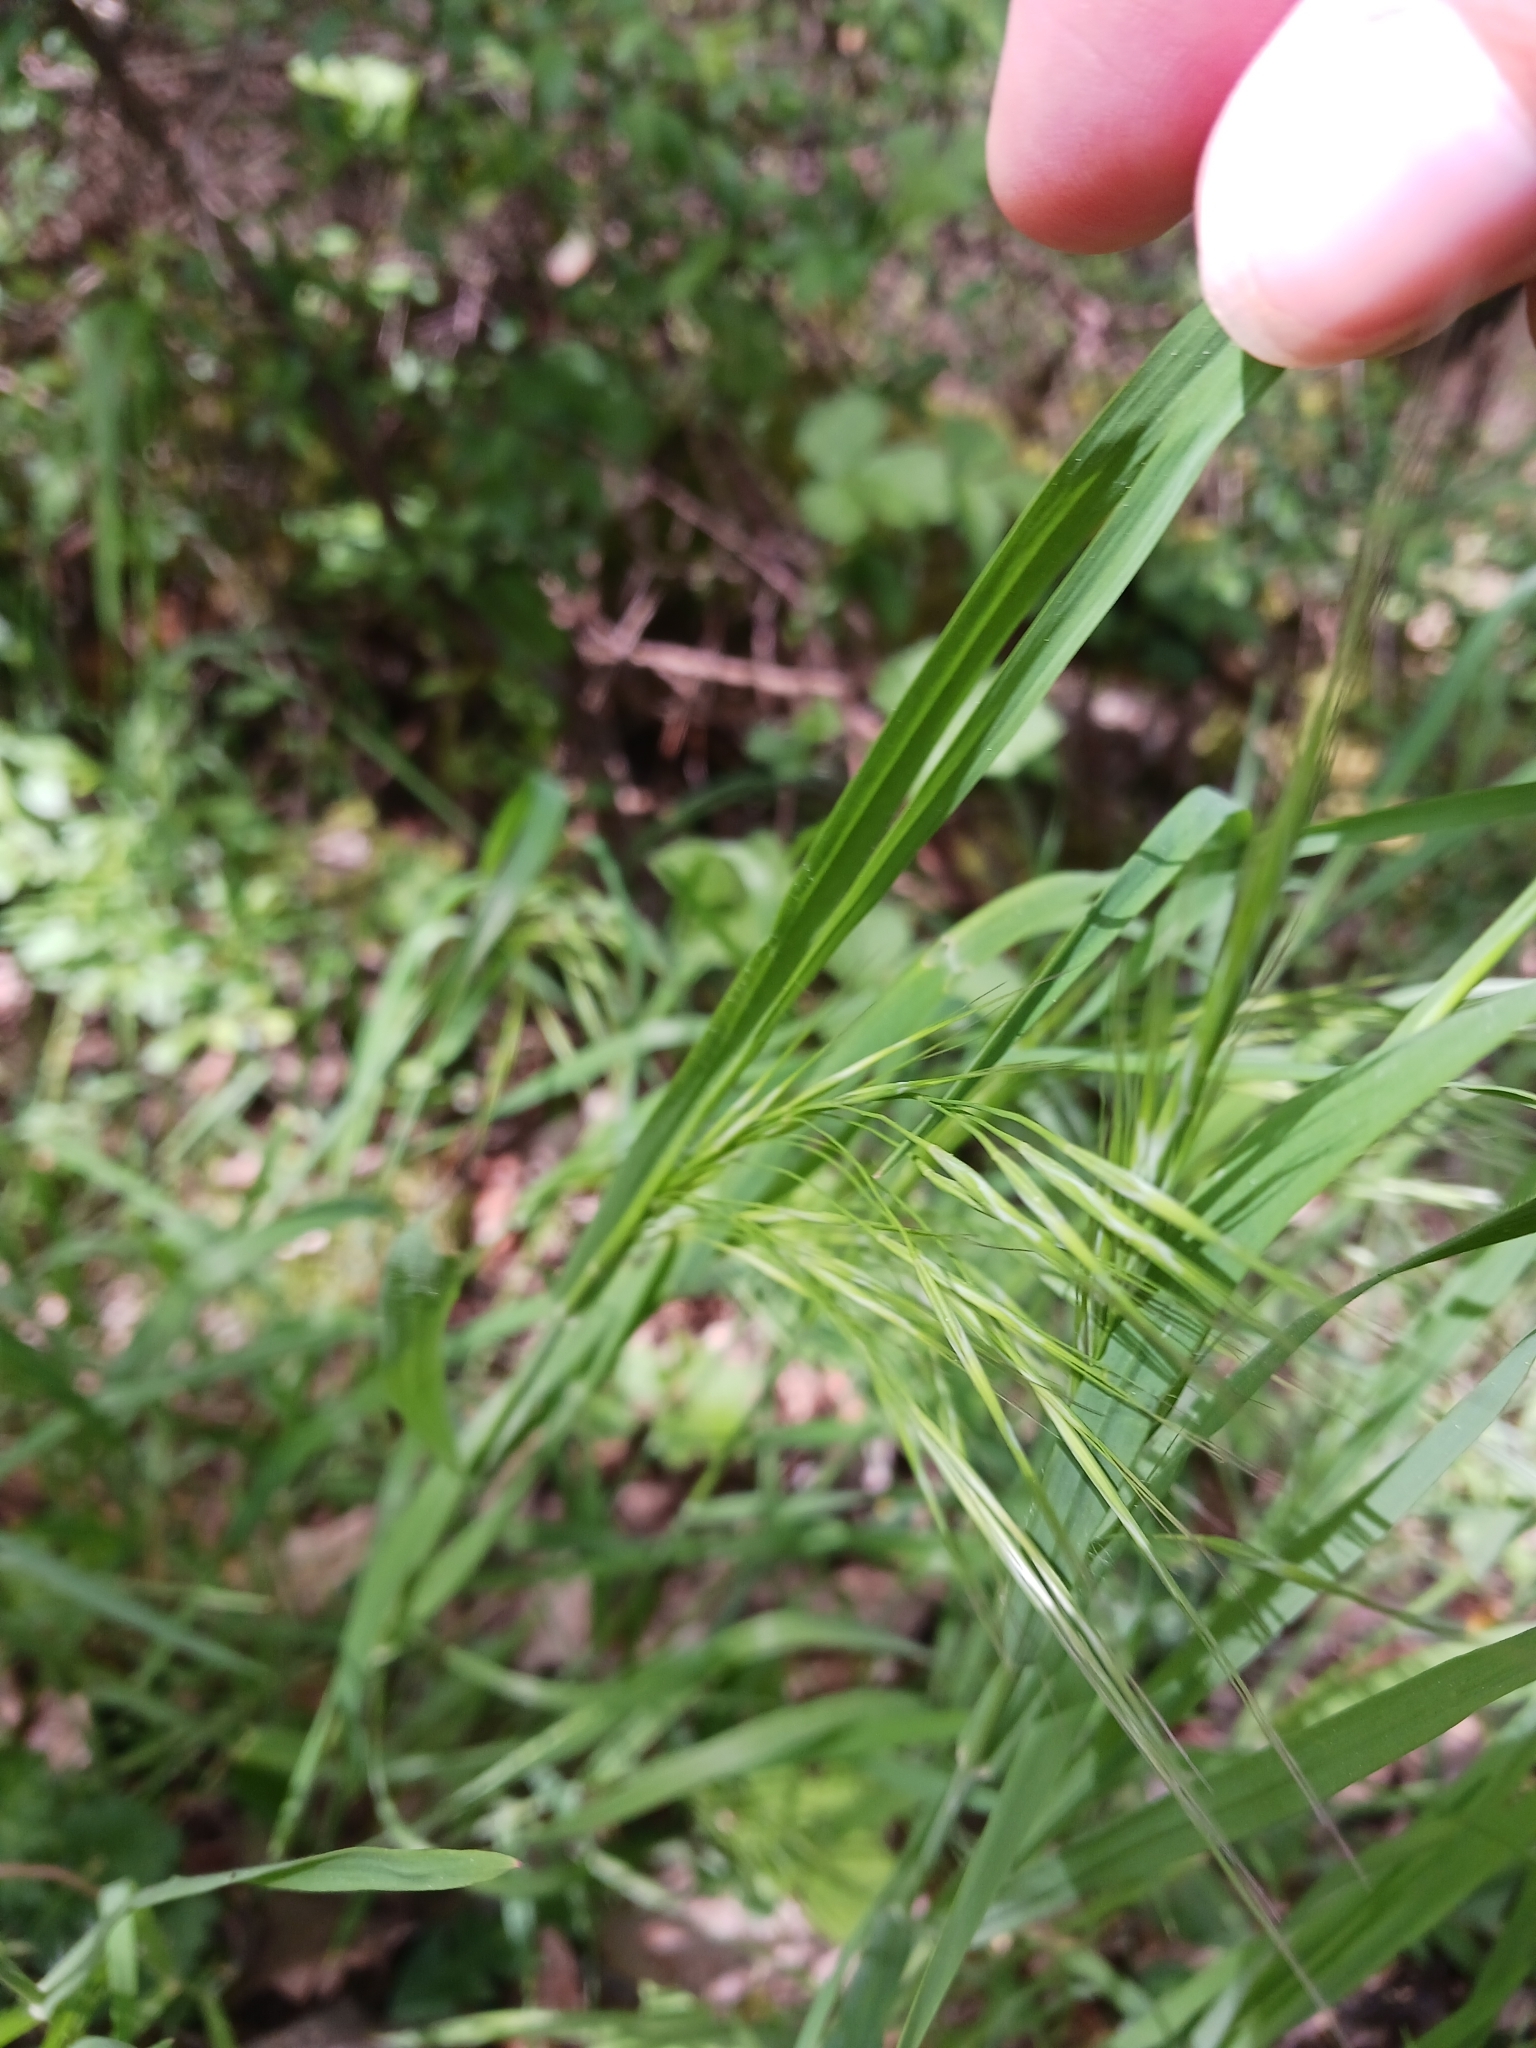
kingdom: Plantae
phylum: Tracheophyta
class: Liliopsida
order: Poales
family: Poaceae
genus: Bromus
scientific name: Bromus sterilis
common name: Poverty brome
